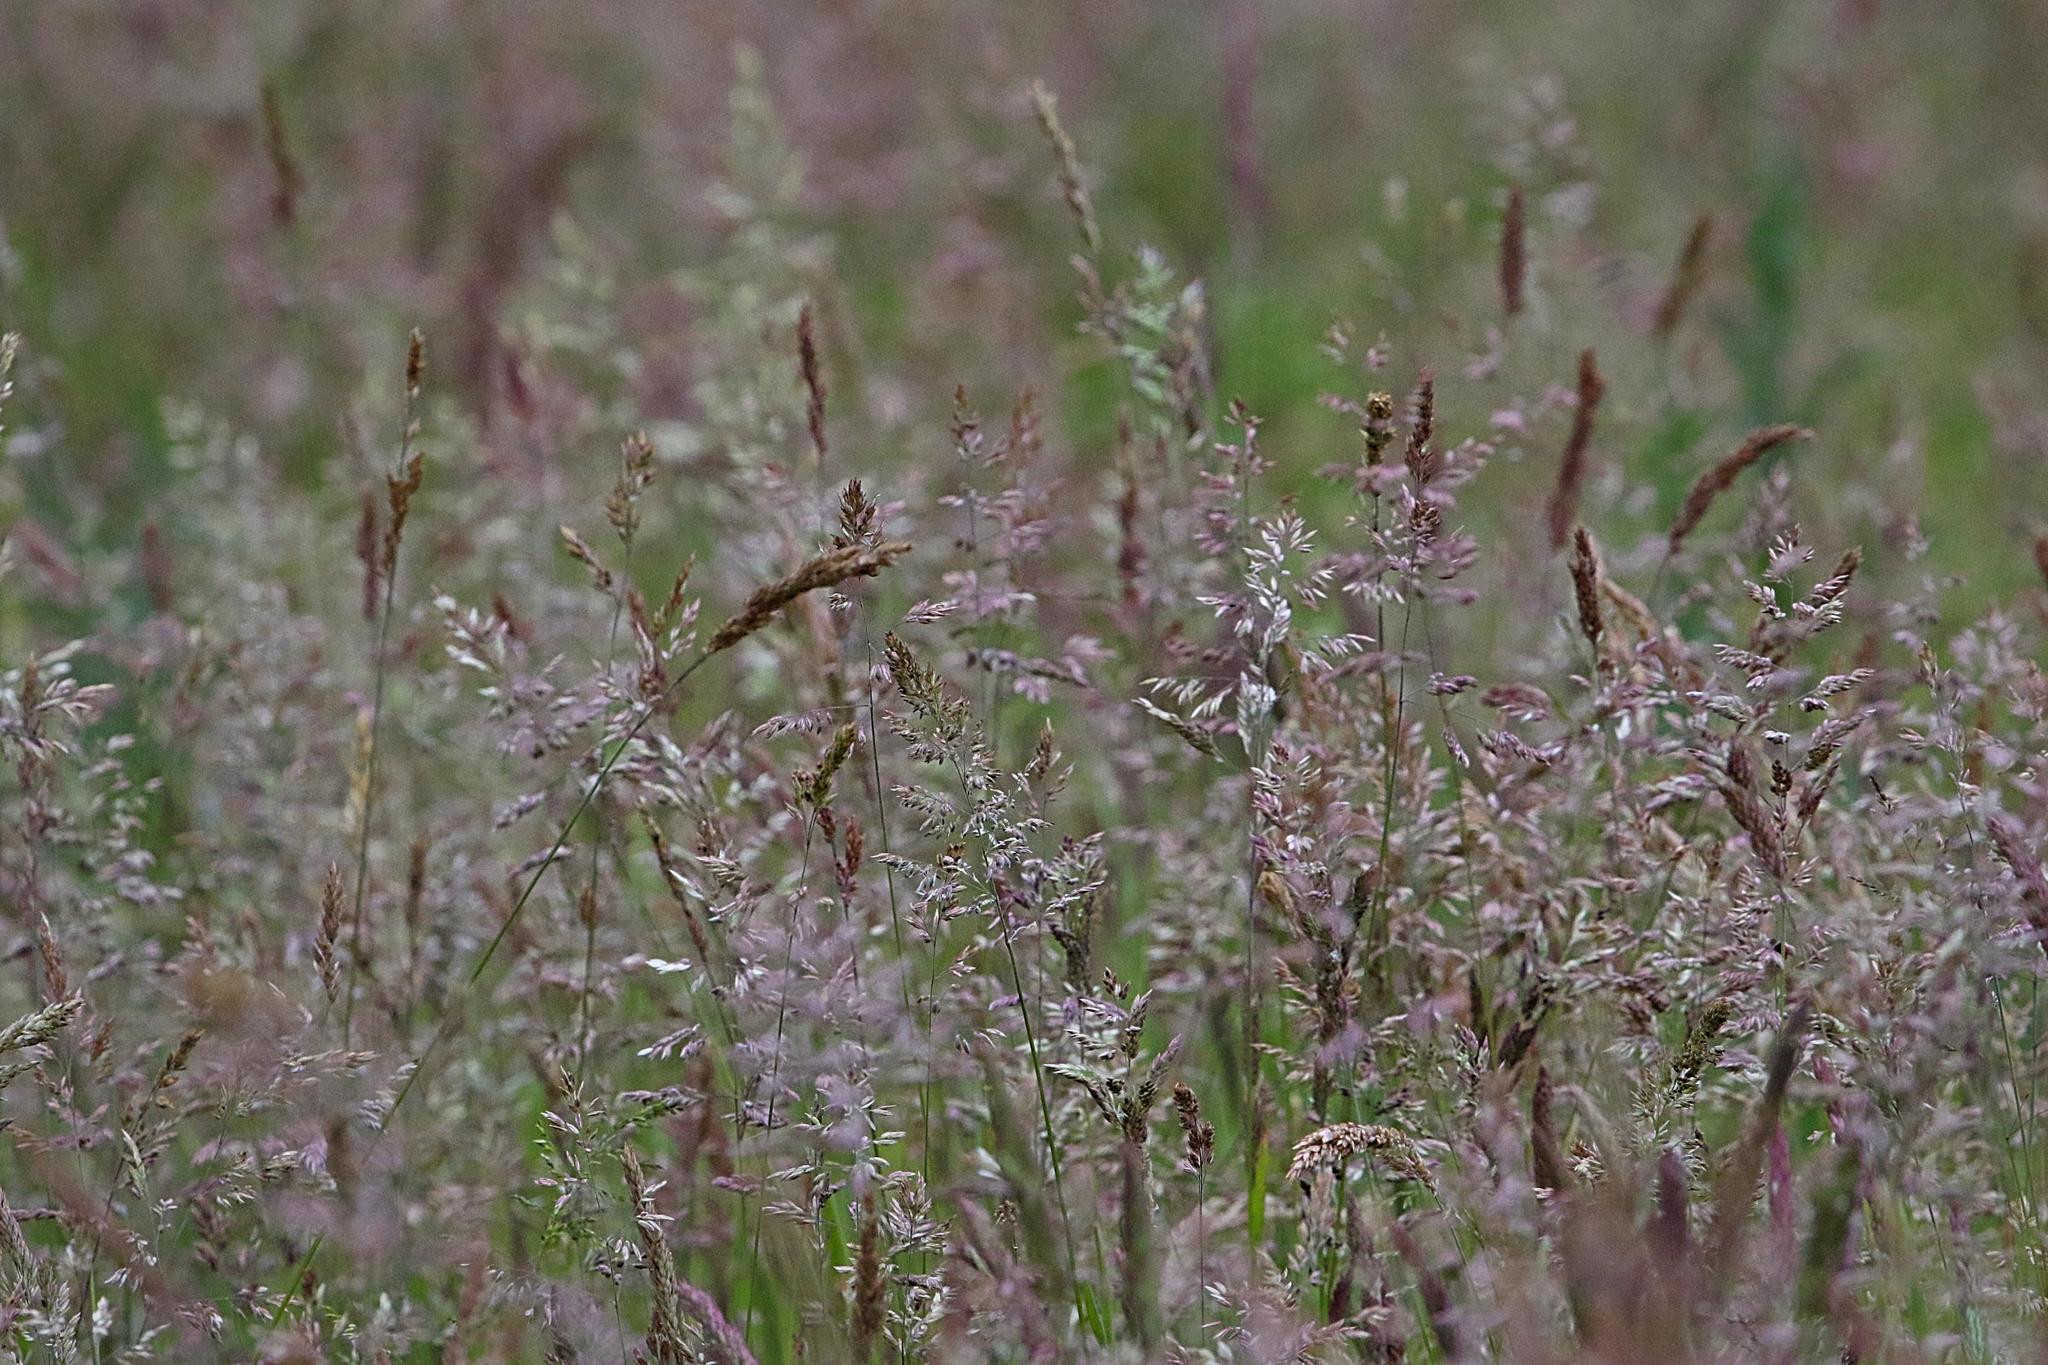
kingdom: Plantae
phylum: Tracheophyta
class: Liliopsida
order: Poales
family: Poaceae
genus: Holcus
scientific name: Holcus lanatus
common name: Yorkshire-fog
